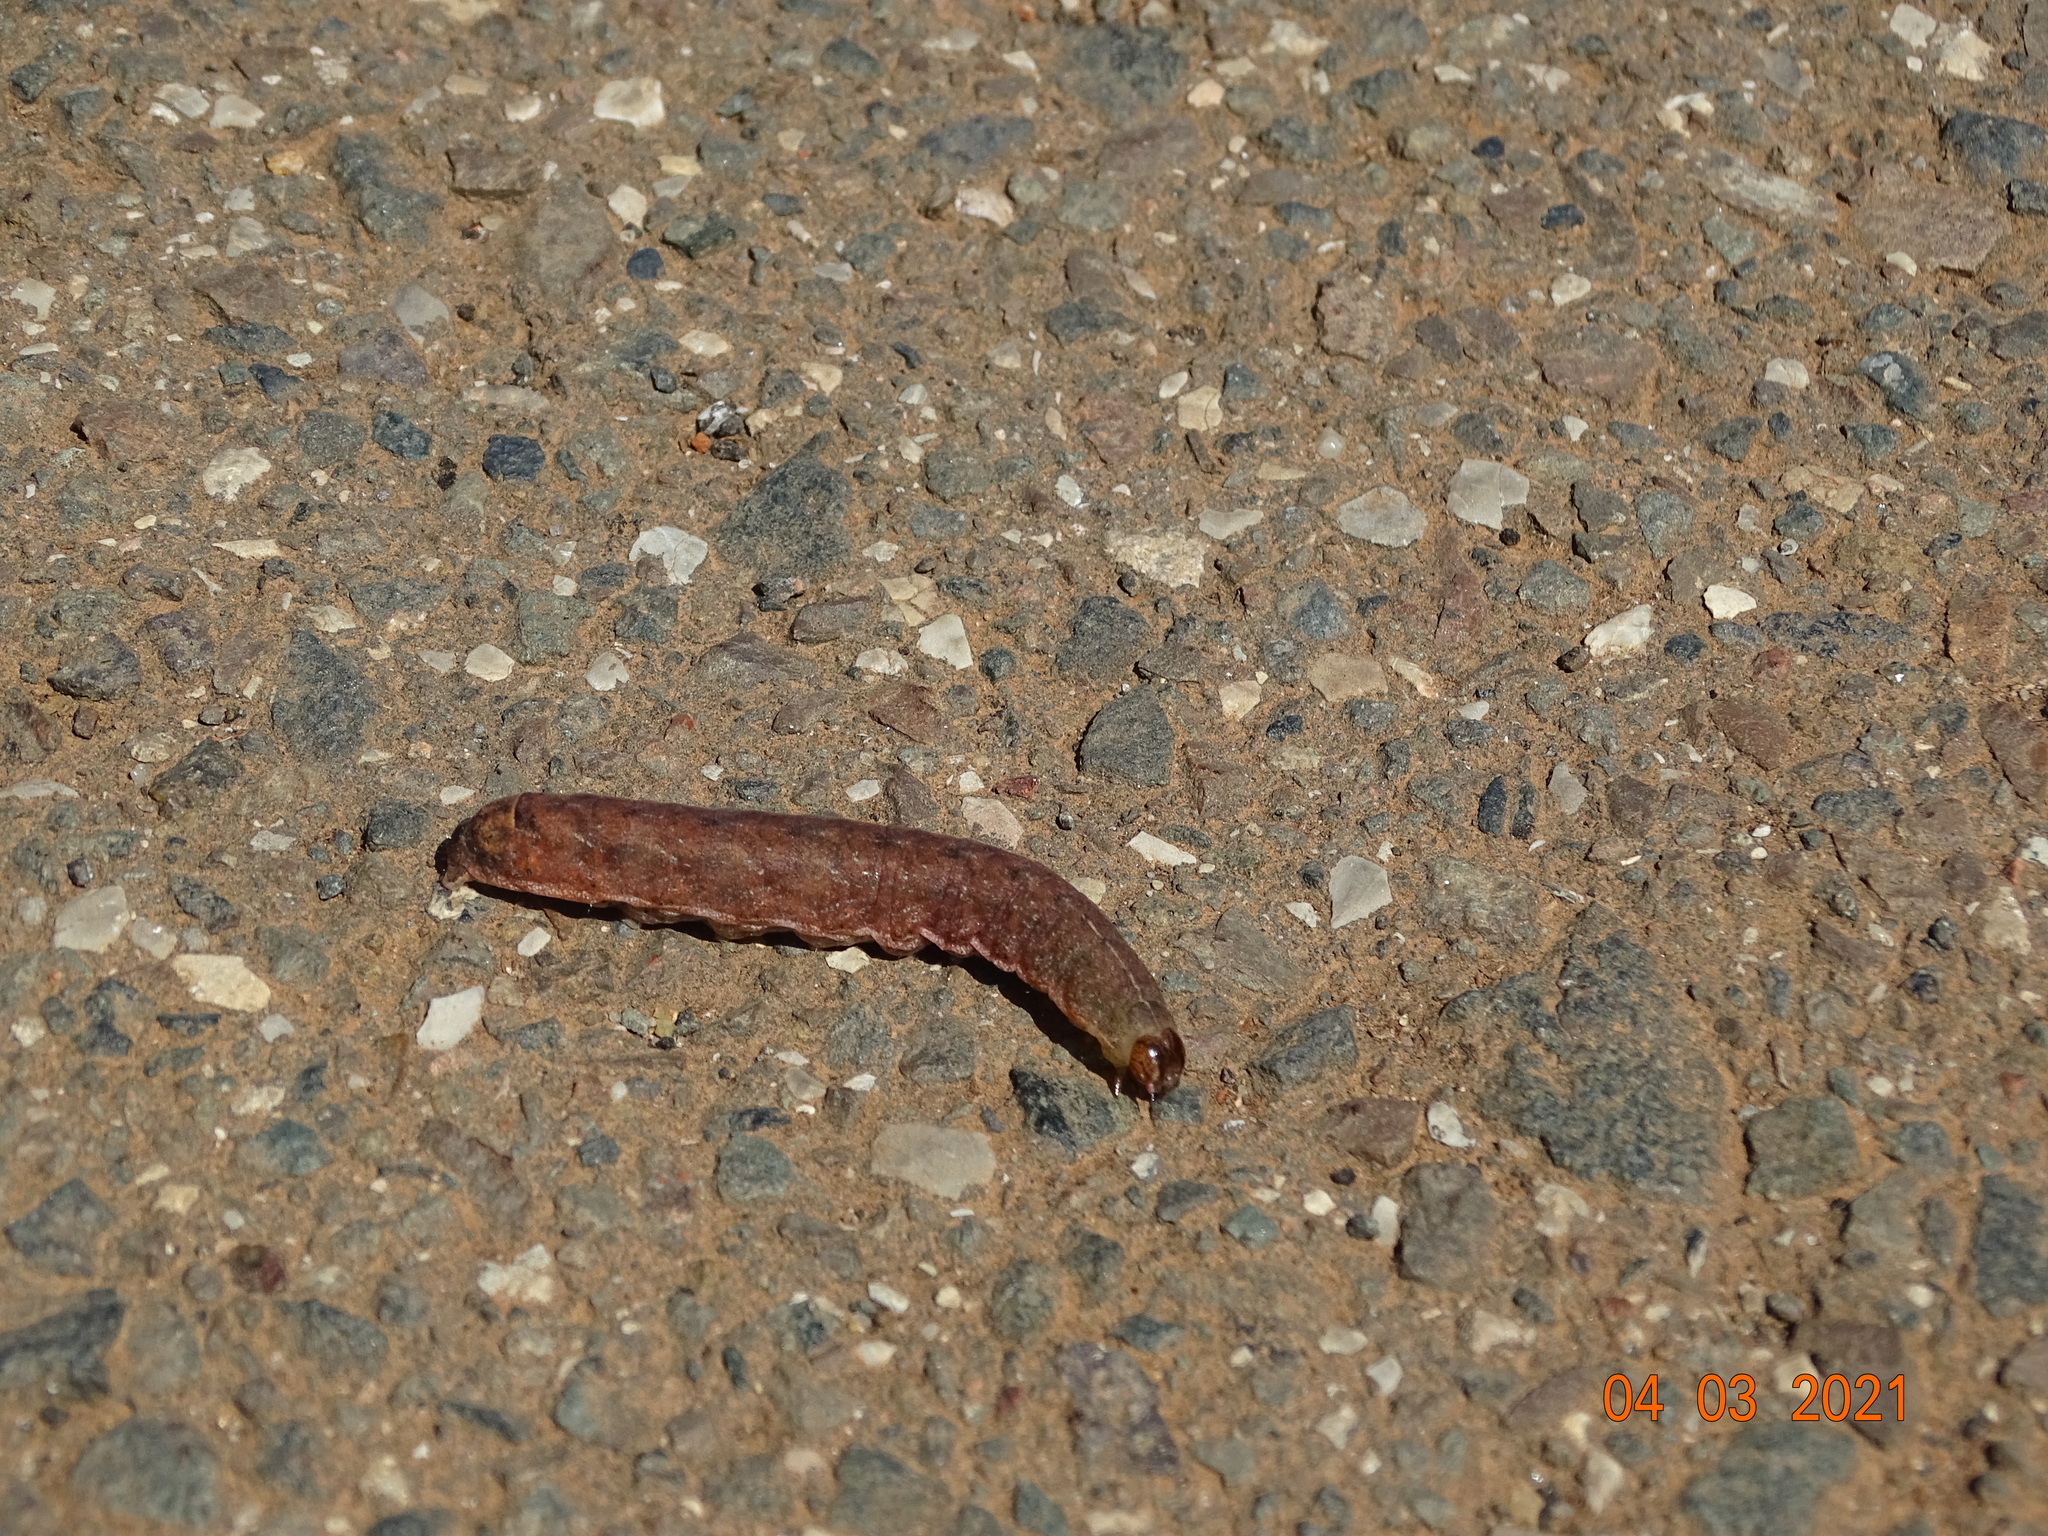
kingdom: Animalia
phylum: Arthropoda
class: Insecta
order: Lepidoptera
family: Notodontidae
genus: Misogada
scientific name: Misogada unicolor
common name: Drab prominent
